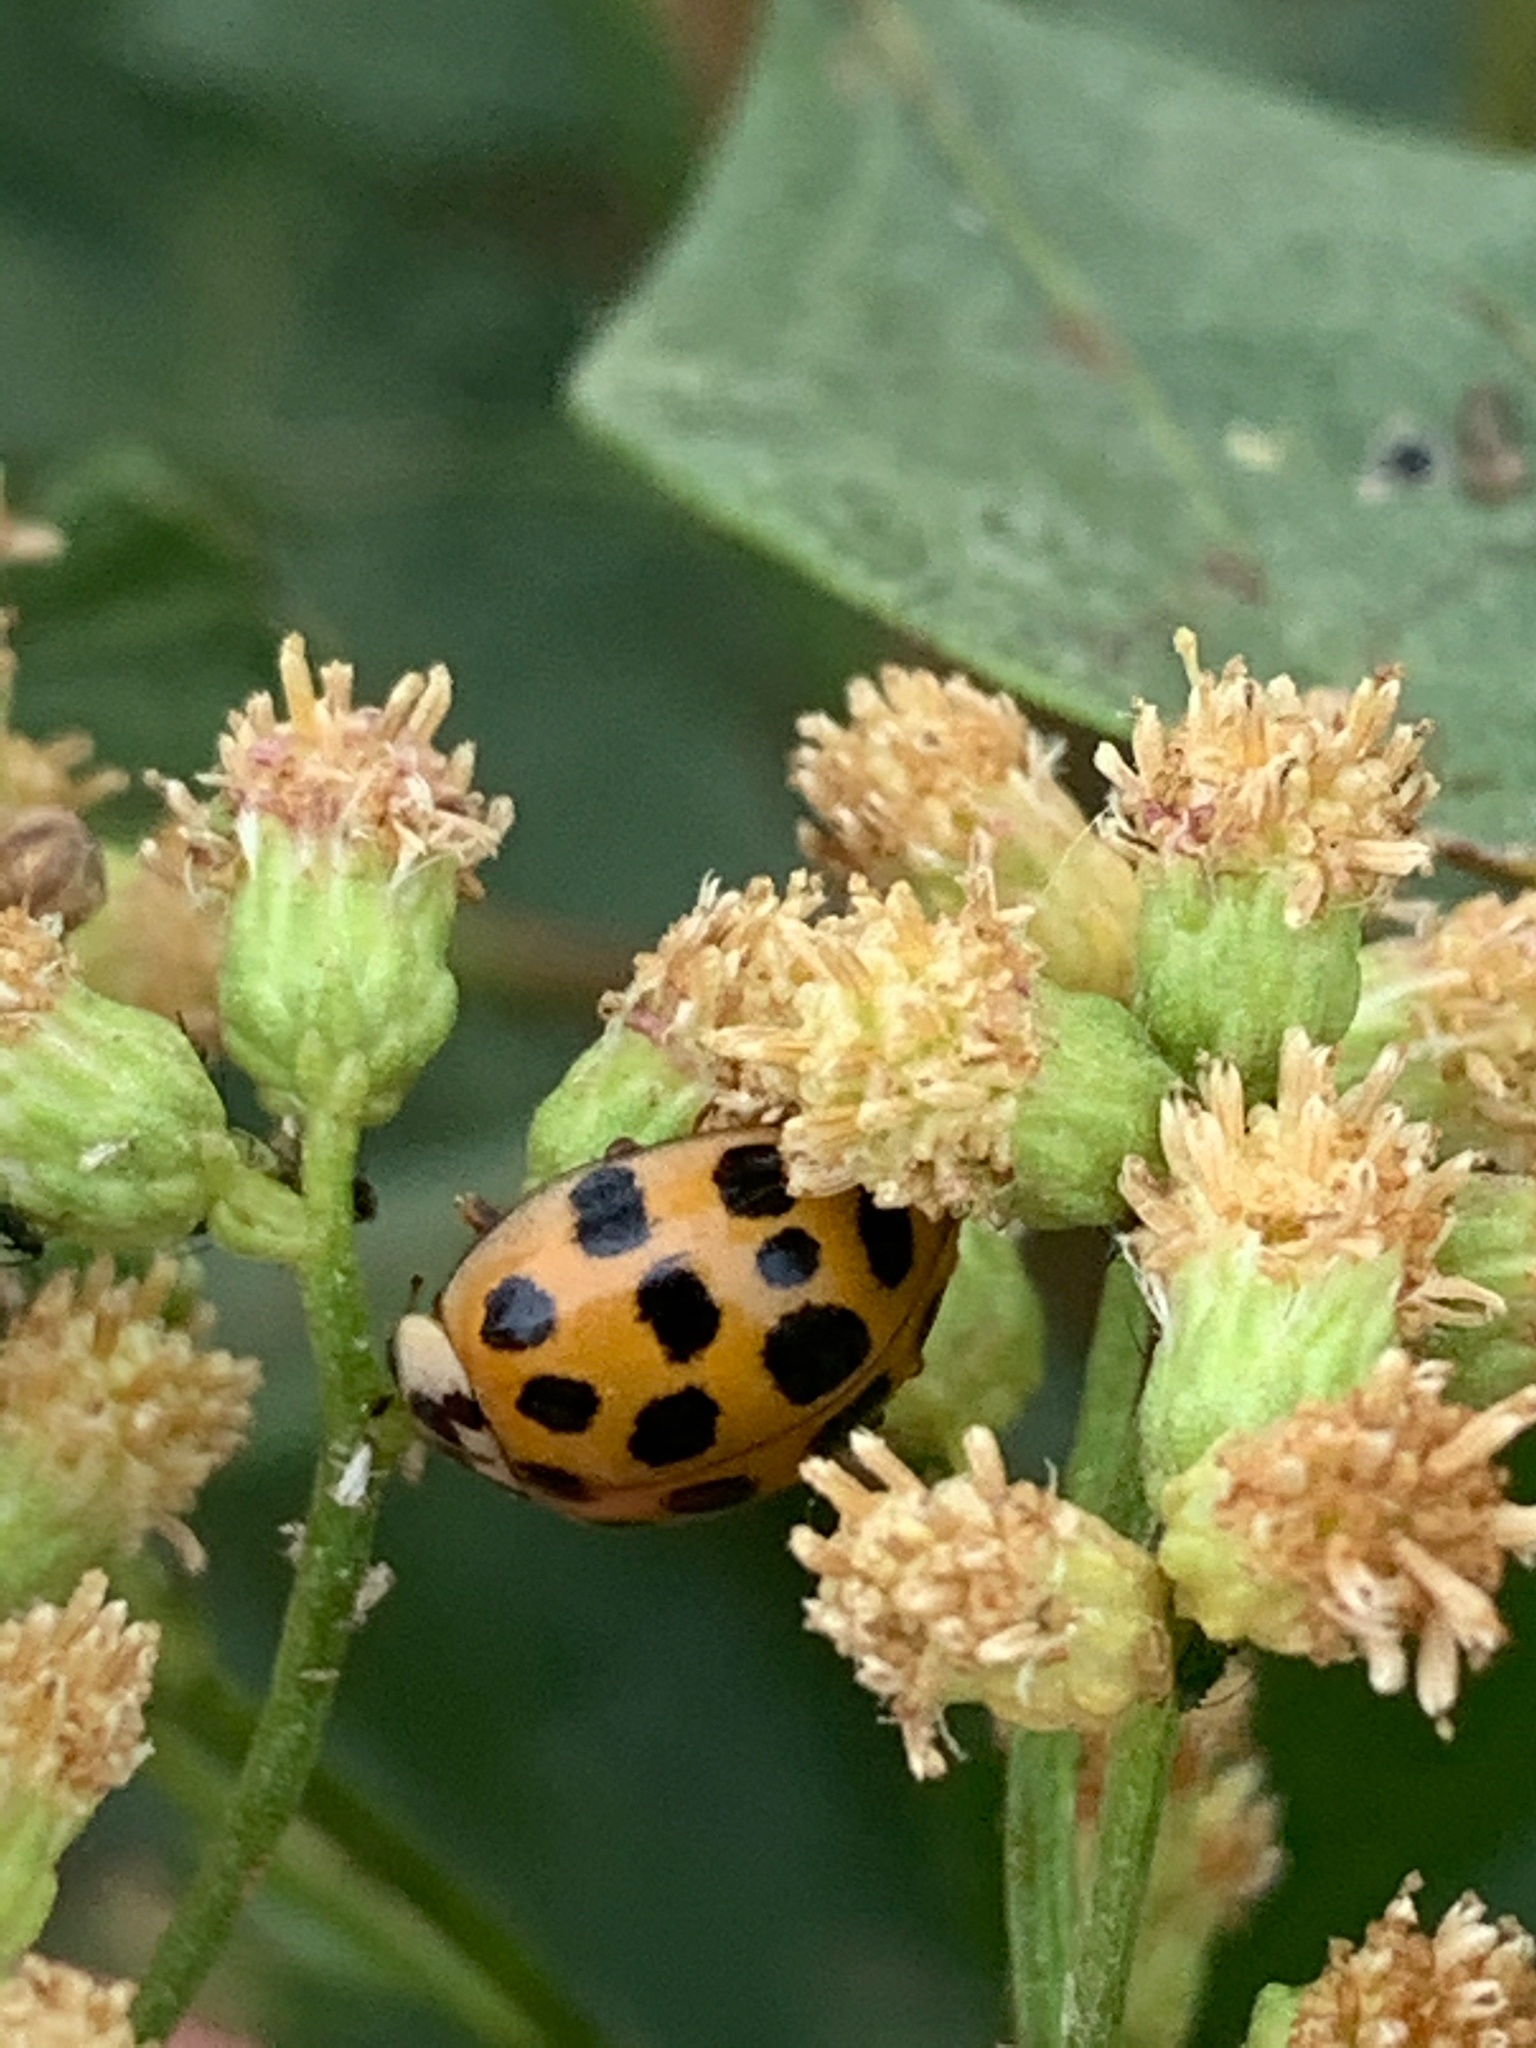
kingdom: Animalia
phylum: Arthropoda
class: Insecta
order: Coleoptera
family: Coccinellidae
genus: Harmonia
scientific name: Harmonia axyridis
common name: Harlequin ladybird
